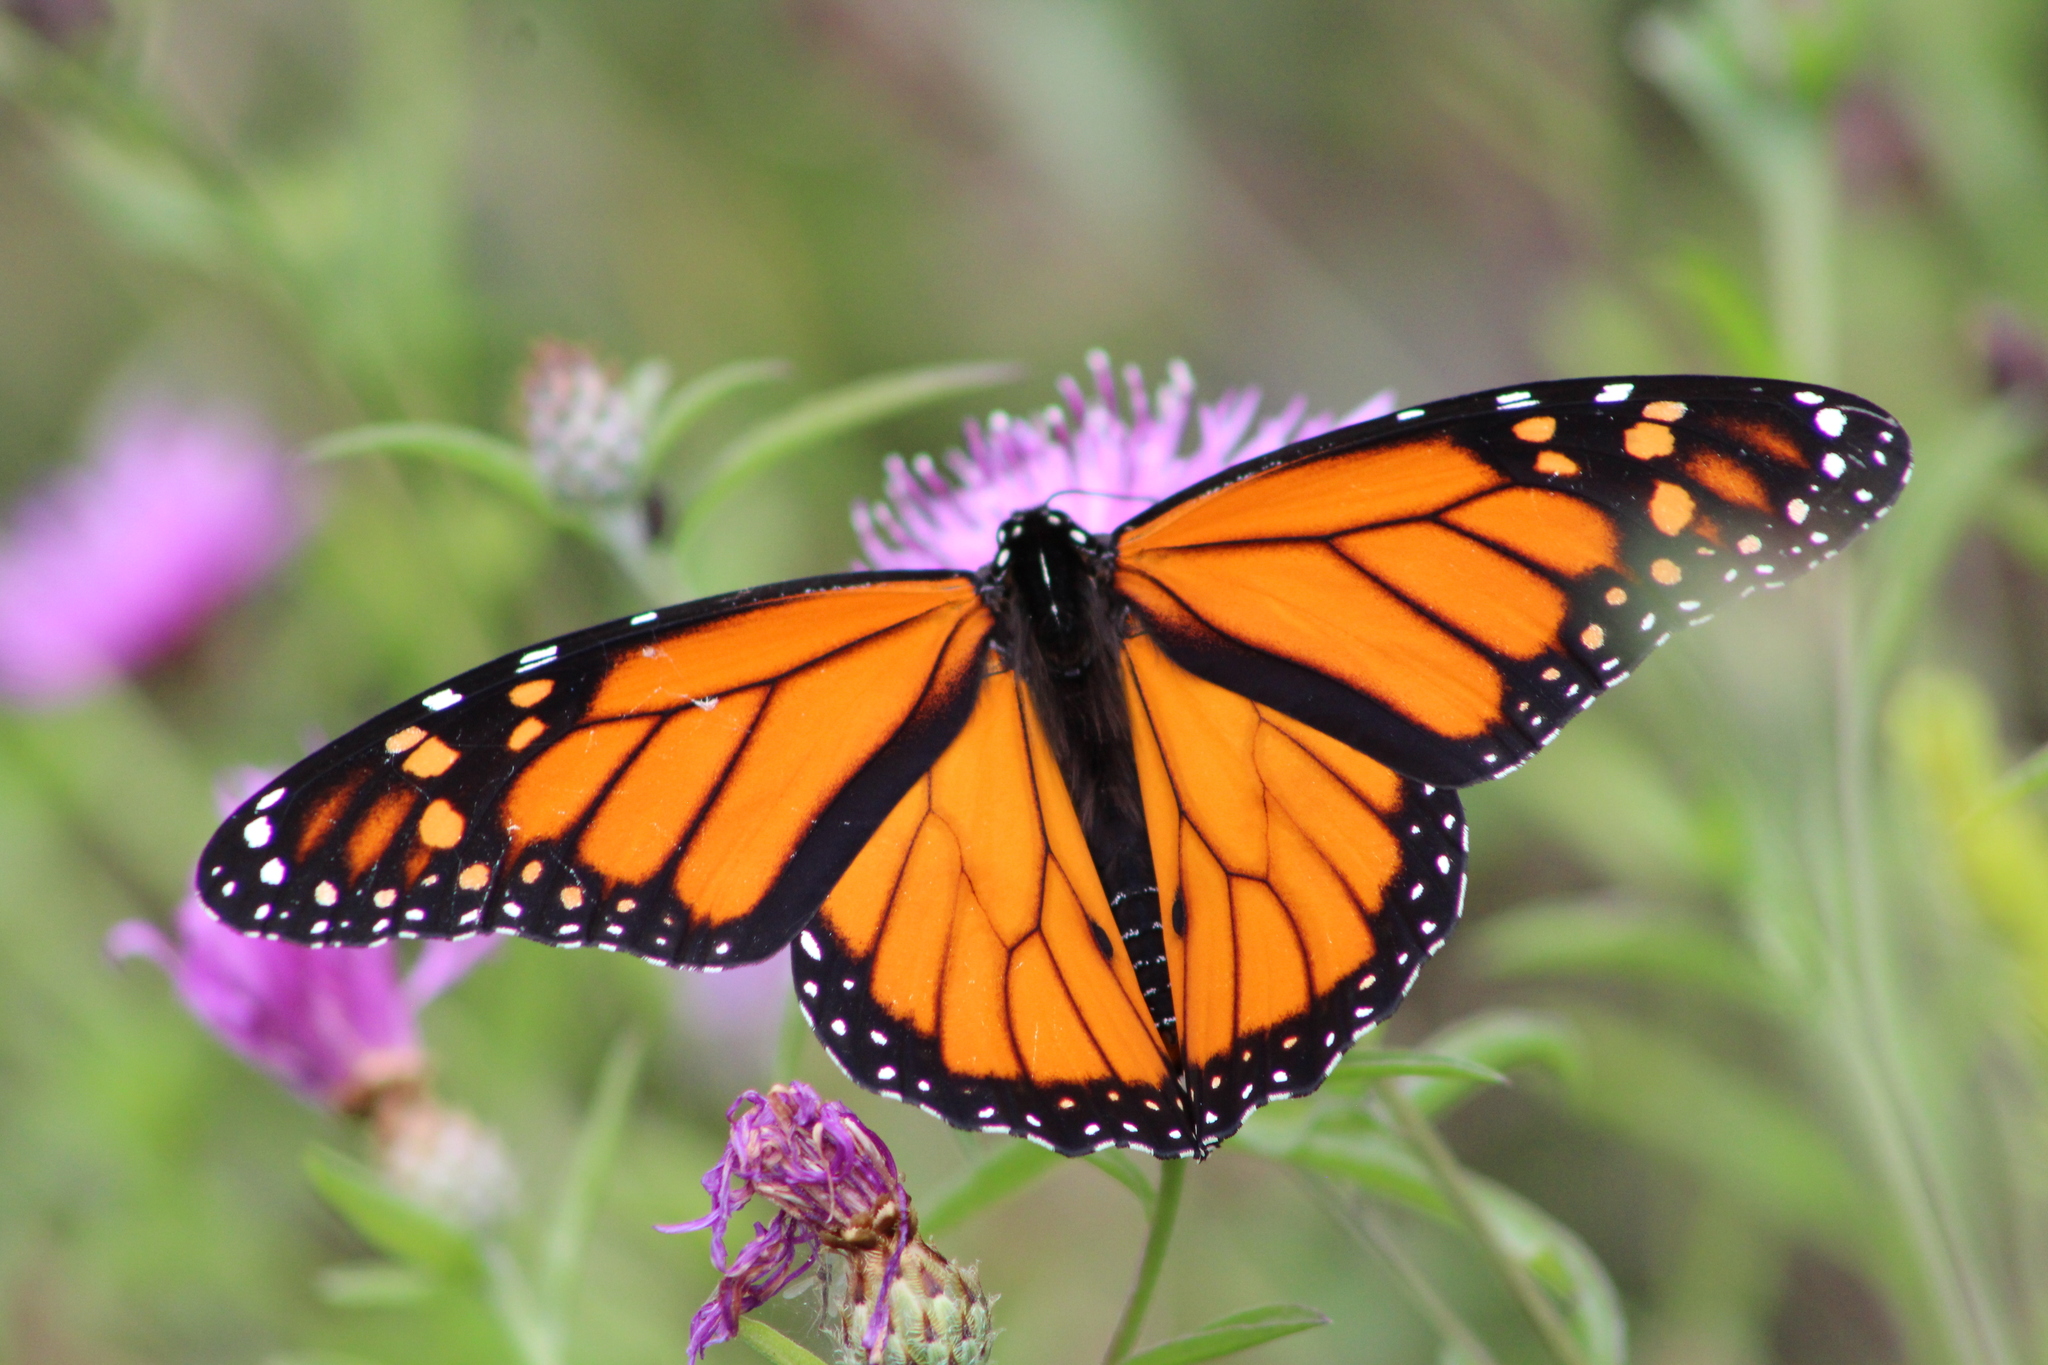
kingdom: Animalia
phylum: Arthropoda
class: Insecta
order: Lepidoptera
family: Nymphalidae
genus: Danaus
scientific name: Danaus plexippus
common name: Monarch
